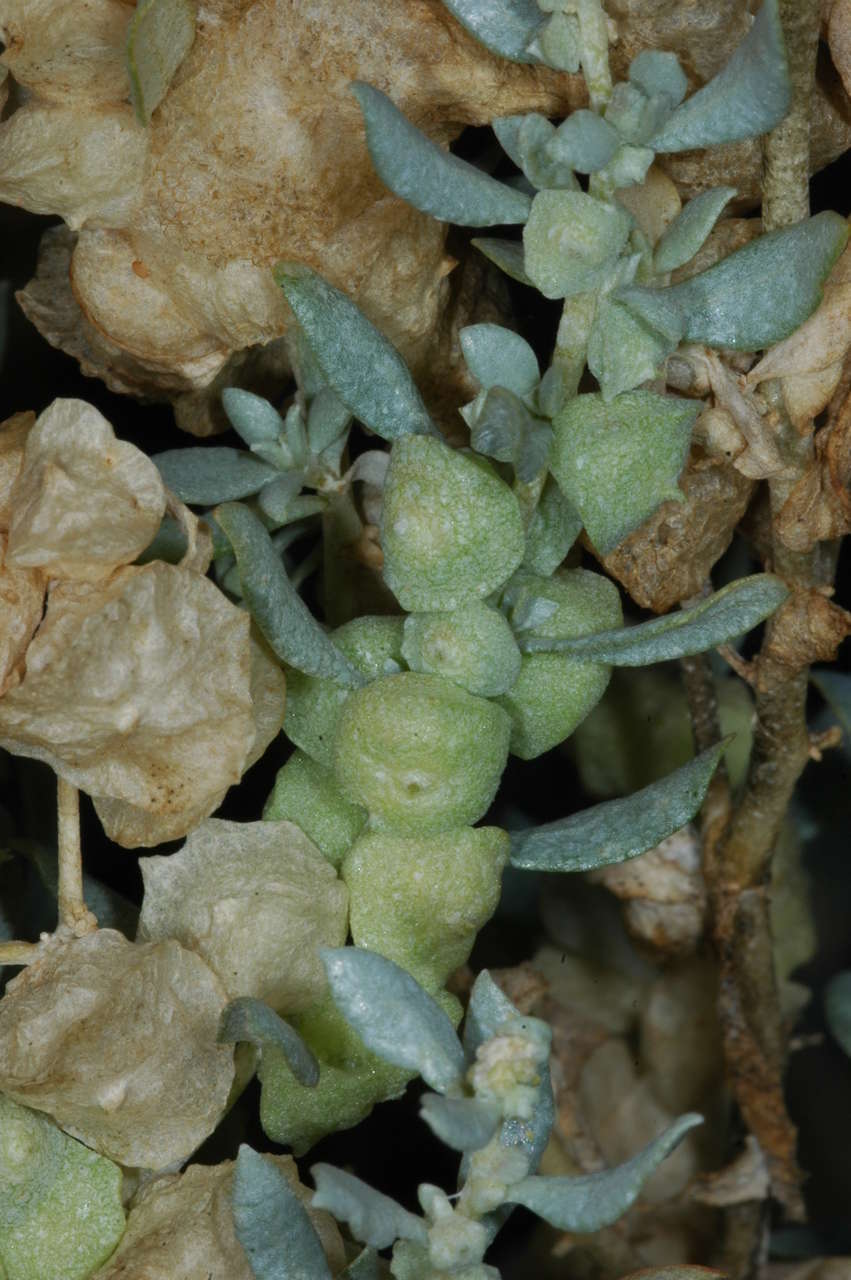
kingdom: Plantae
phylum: Tracheophyta
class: Magnoliopsida
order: Caryophyllales
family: Amaranthaceae
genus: Atriplex
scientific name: Atriplex lindleyi
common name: Lindley's saltbush
